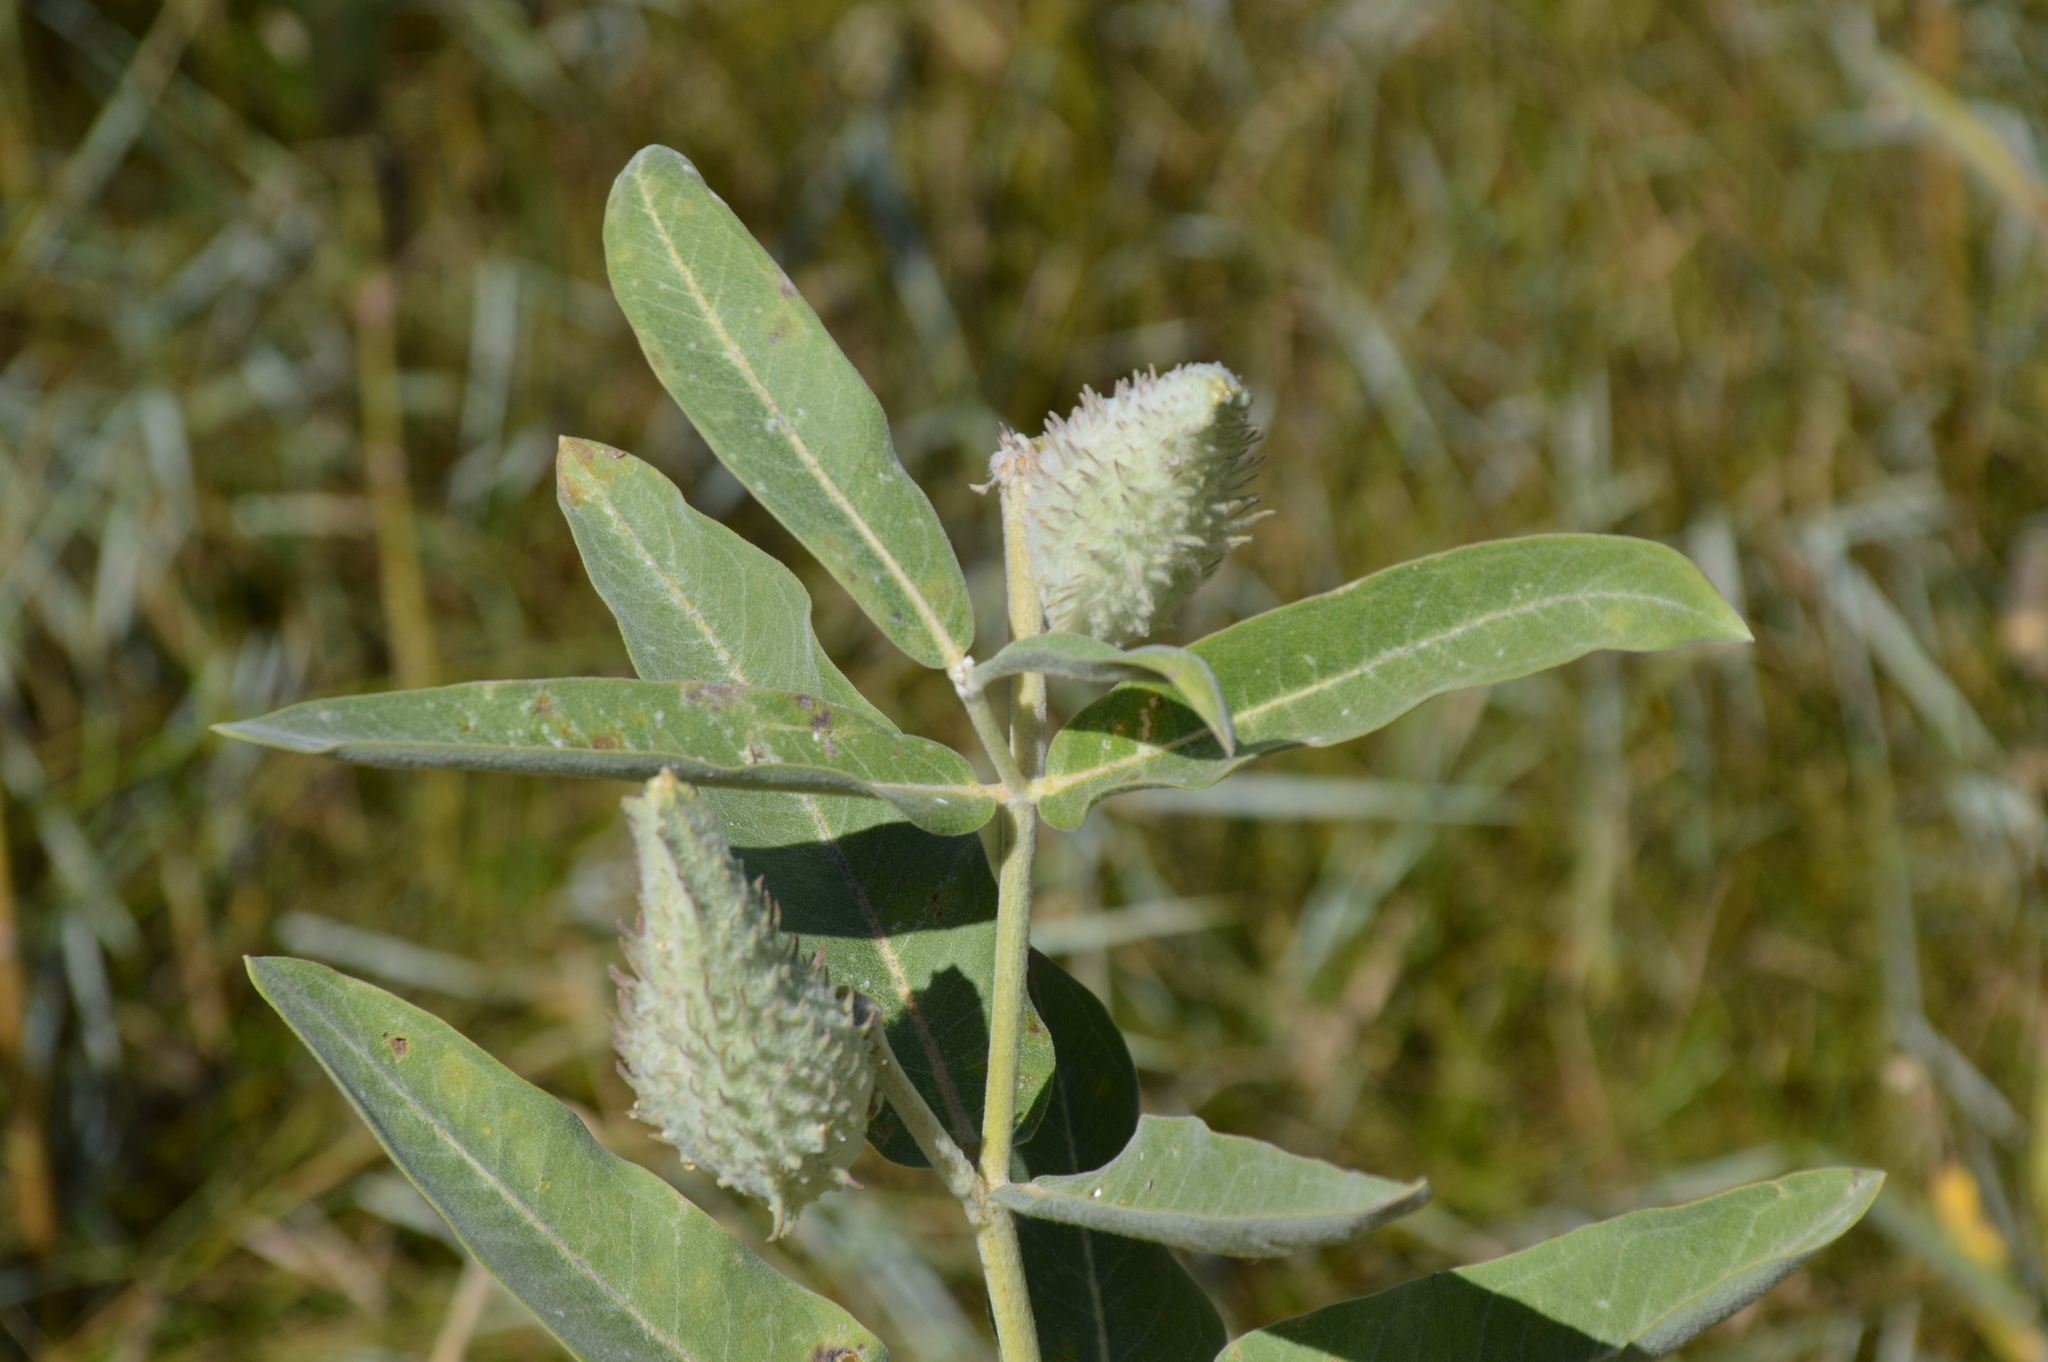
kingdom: Plantae
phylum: Tracheophyta
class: Magnoliopsida
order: Gentianales
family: Apocynaceae
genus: Asclepias
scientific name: Asclepias speciosa
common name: Showy milkweed
